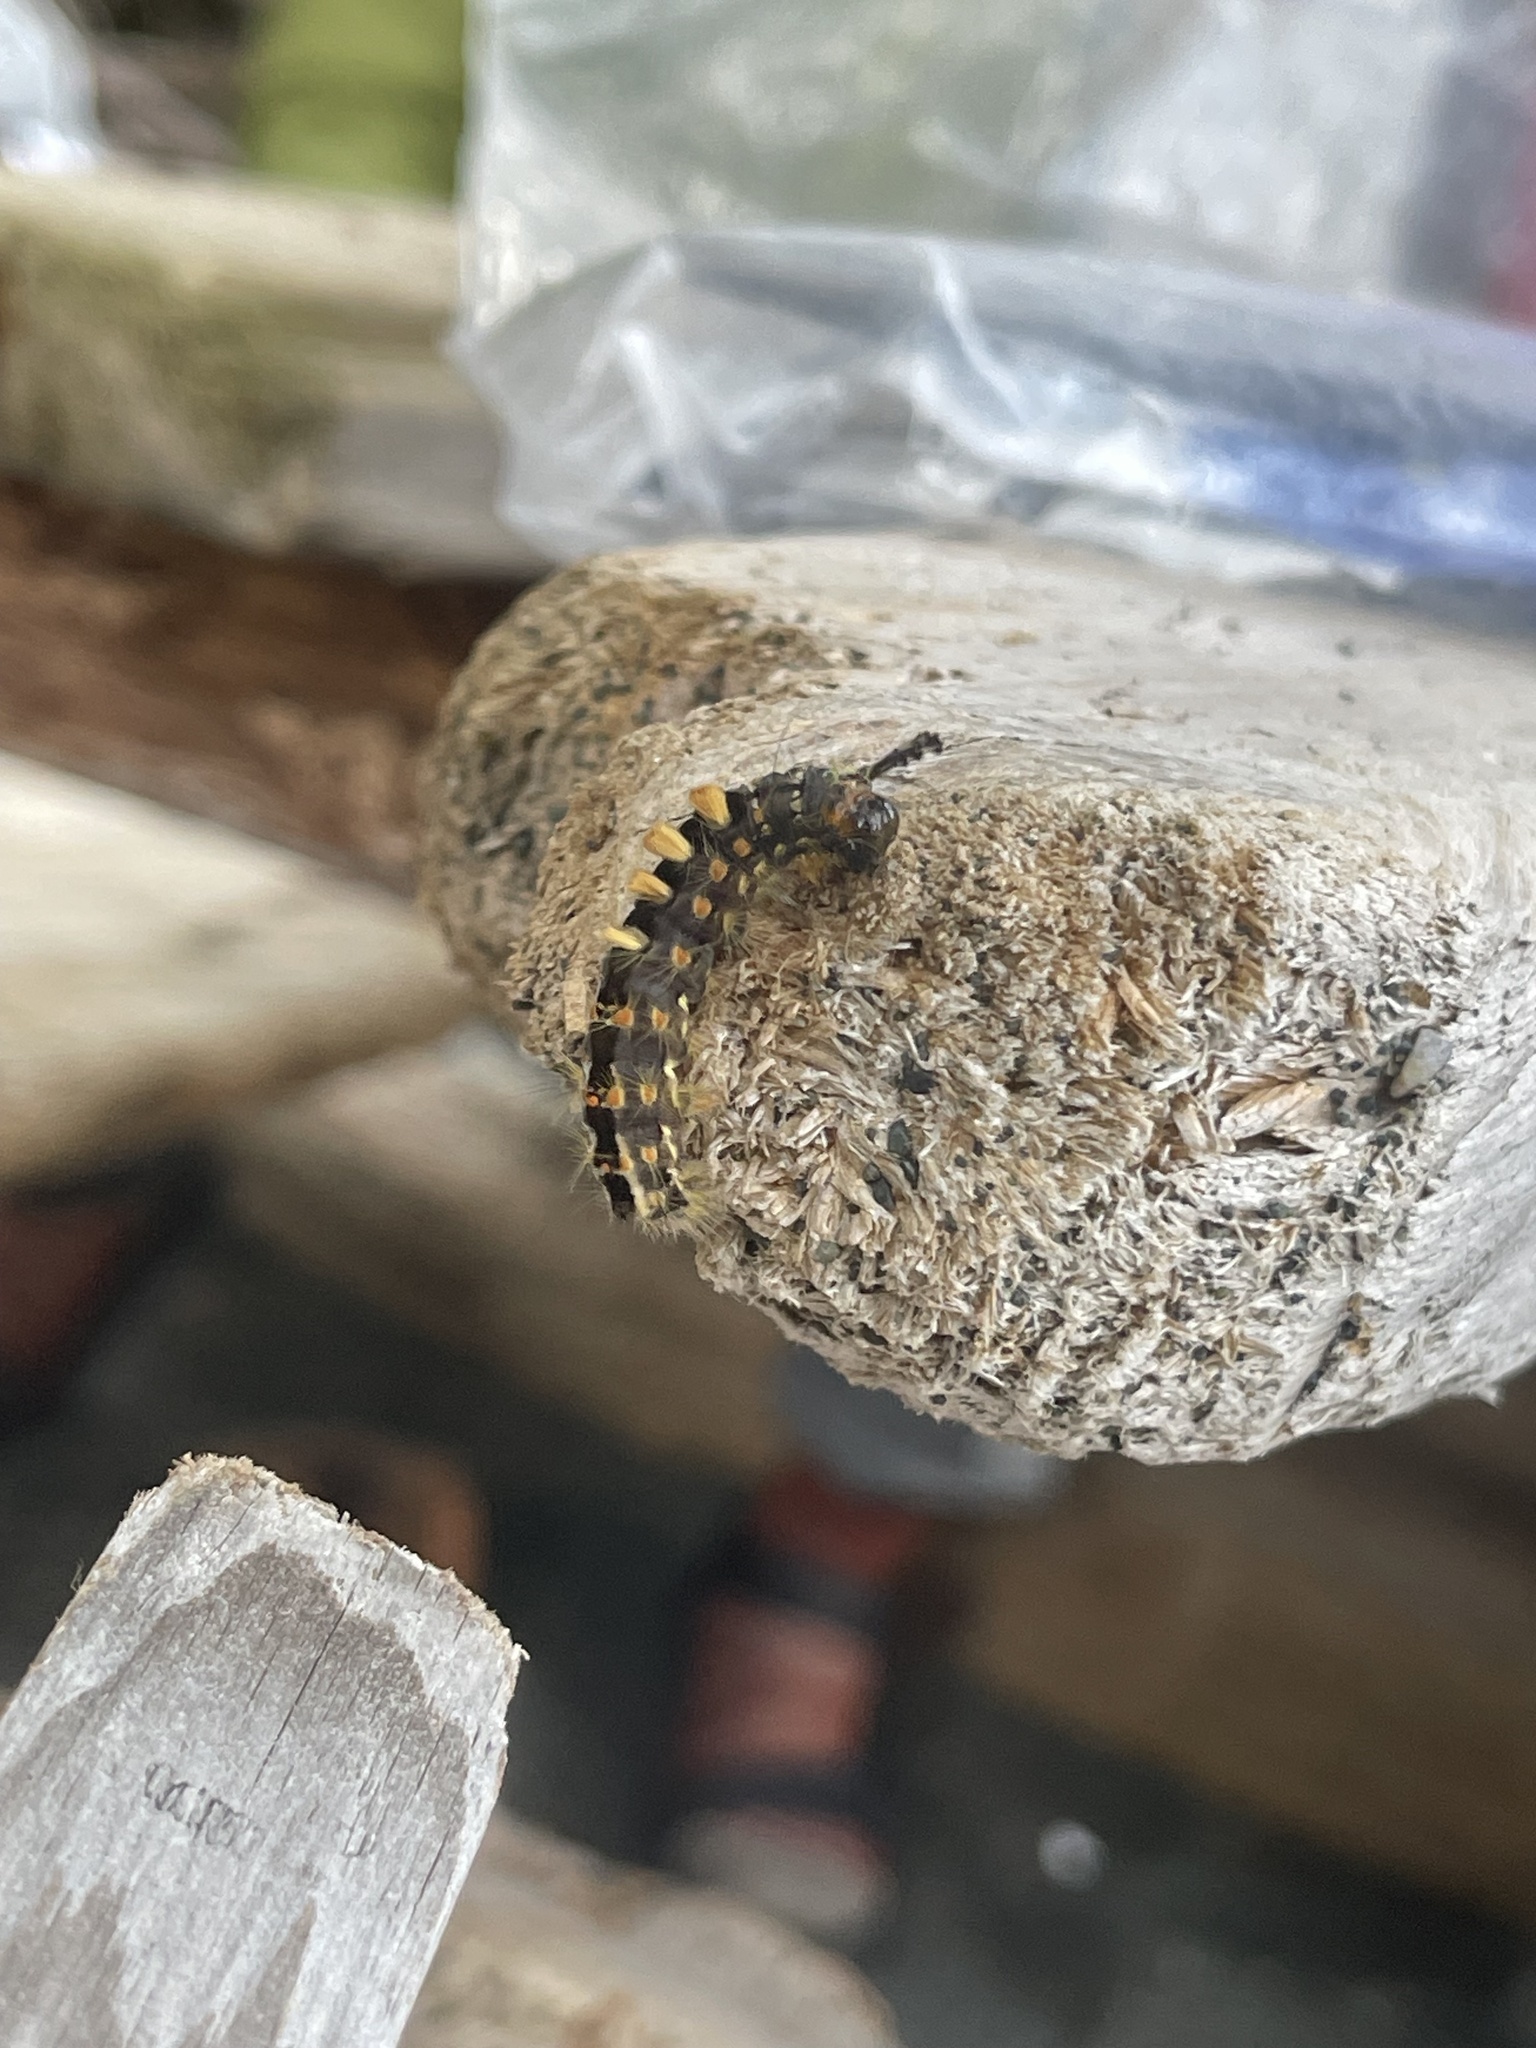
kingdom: Animalia
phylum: Arthropoda
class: Insecta
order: Lepidoptera
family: Erebidae
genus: Orgyia
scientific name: Orgyia antiqua
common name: Vapourer
